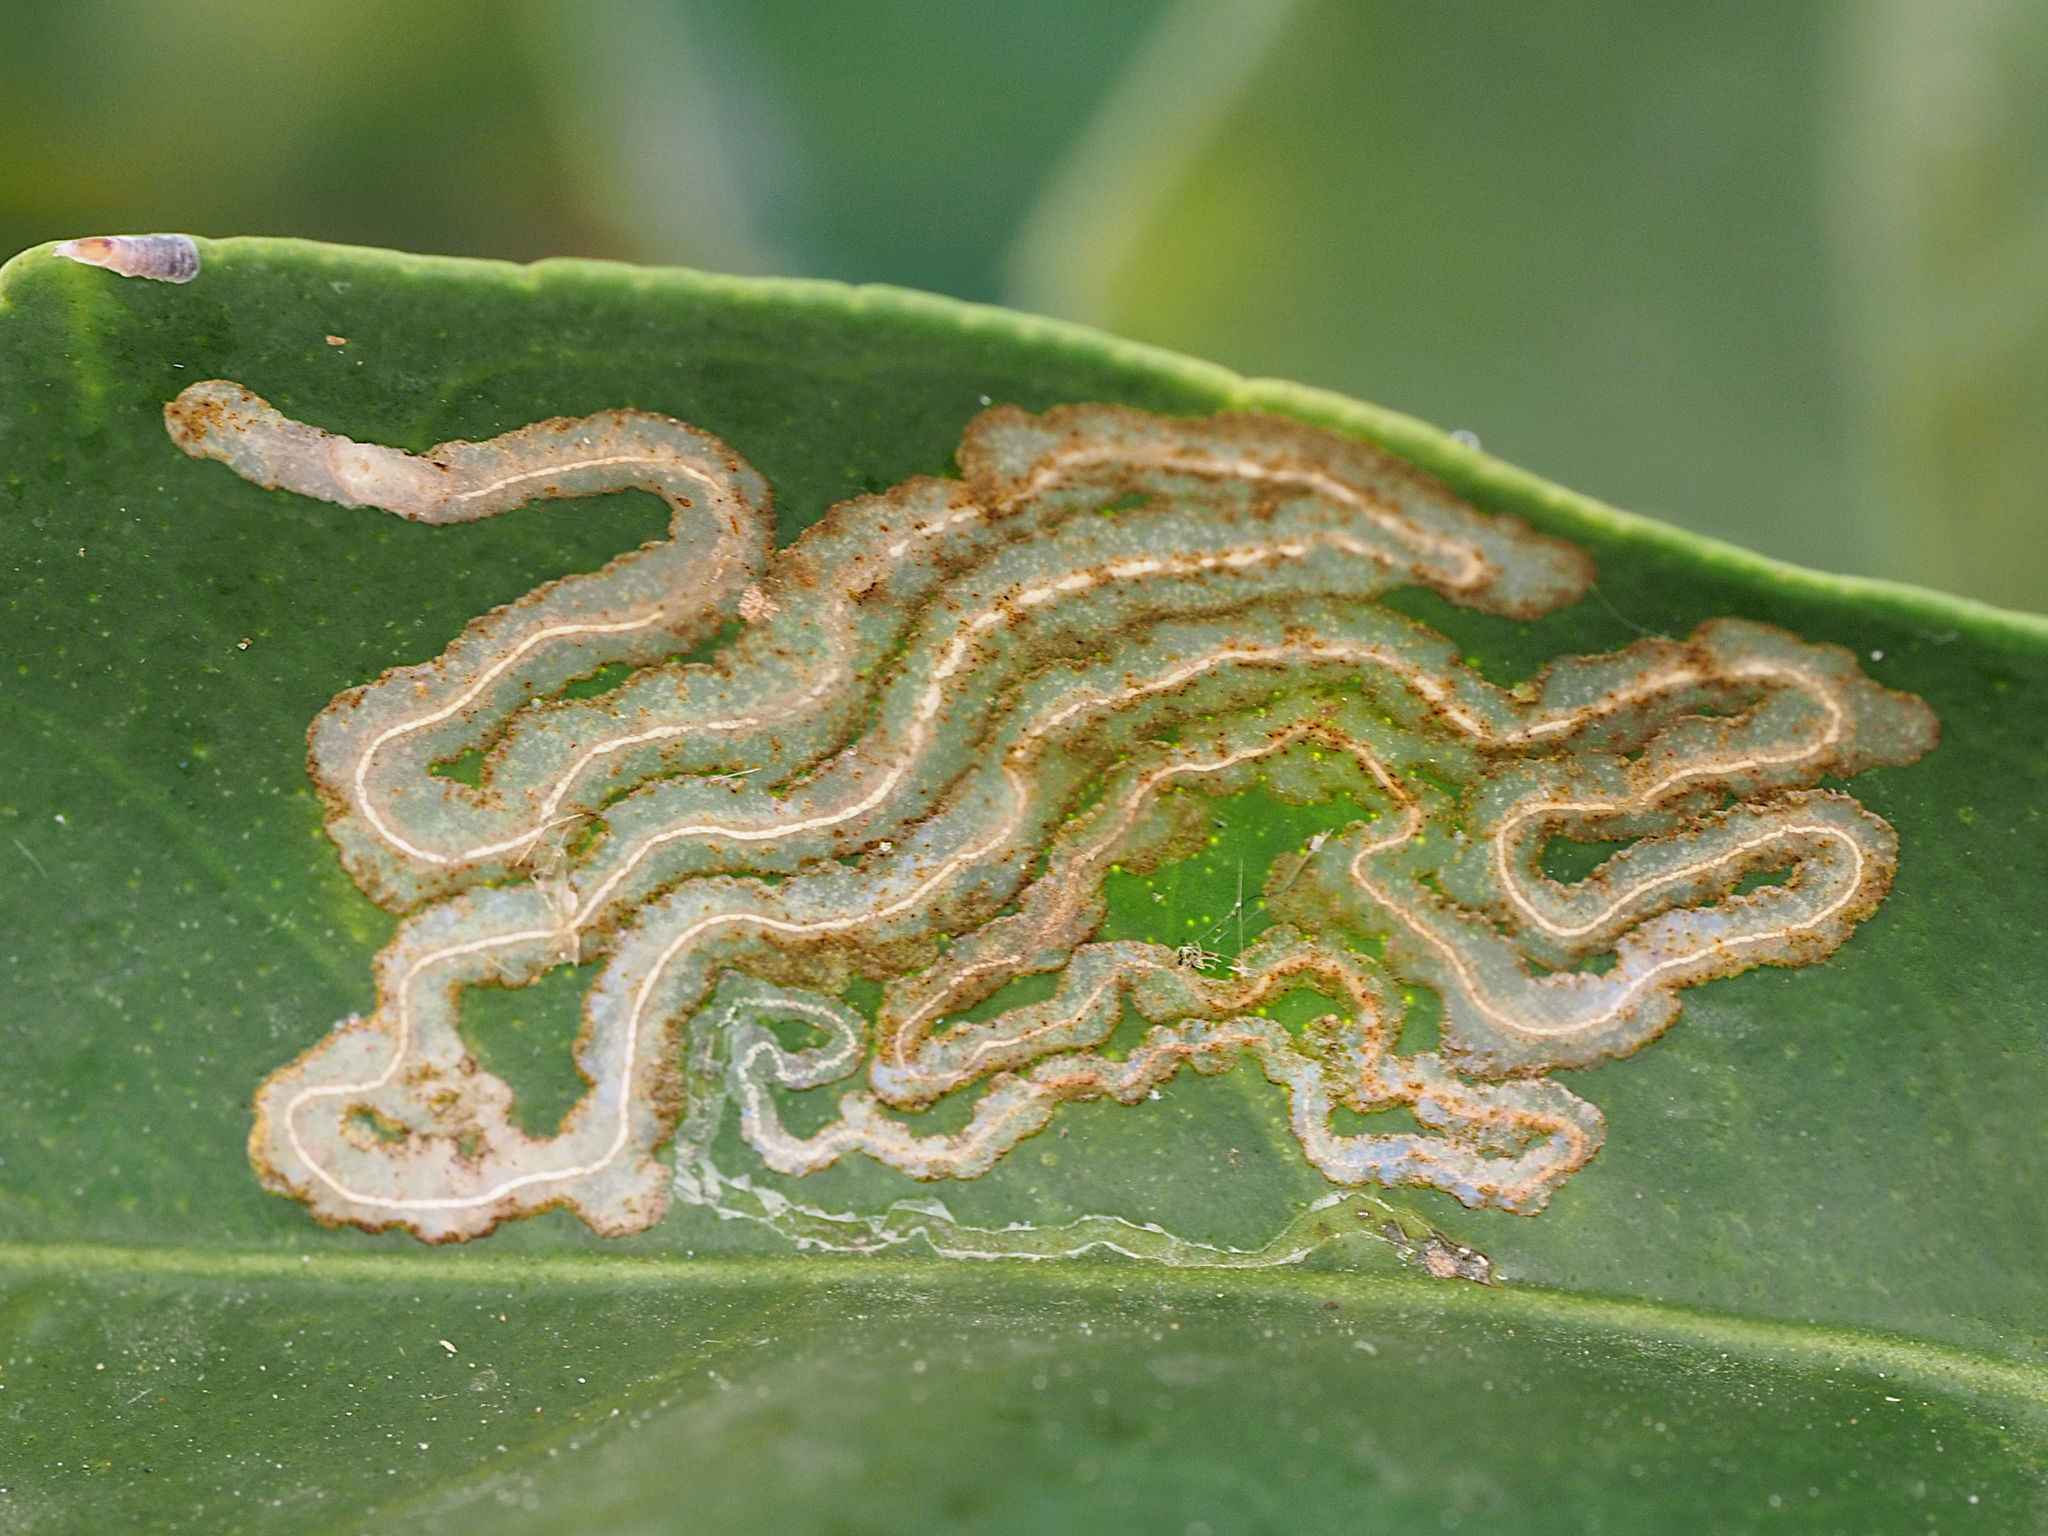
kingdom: Bacteria
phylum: Proteobacteria
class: Gammaproteobacteria
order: Xanthomonadales
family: Xanthomonadaceae
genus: Xanthomonas
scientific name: Xanthomonas cissicola
